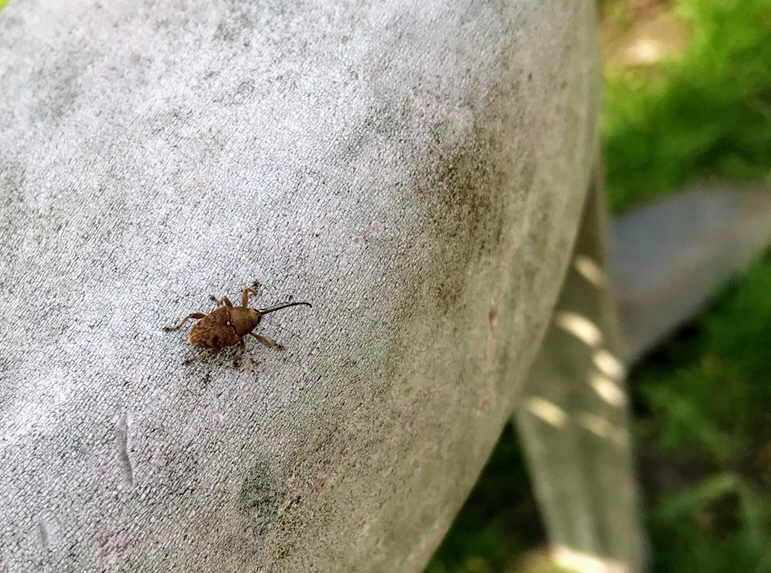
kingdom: Animalia
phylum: Arthropoda
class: Insecta
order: Coleoptera
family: Curculionidae
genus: Curculio
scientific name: Curculio glandium
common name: Acorn weevil
